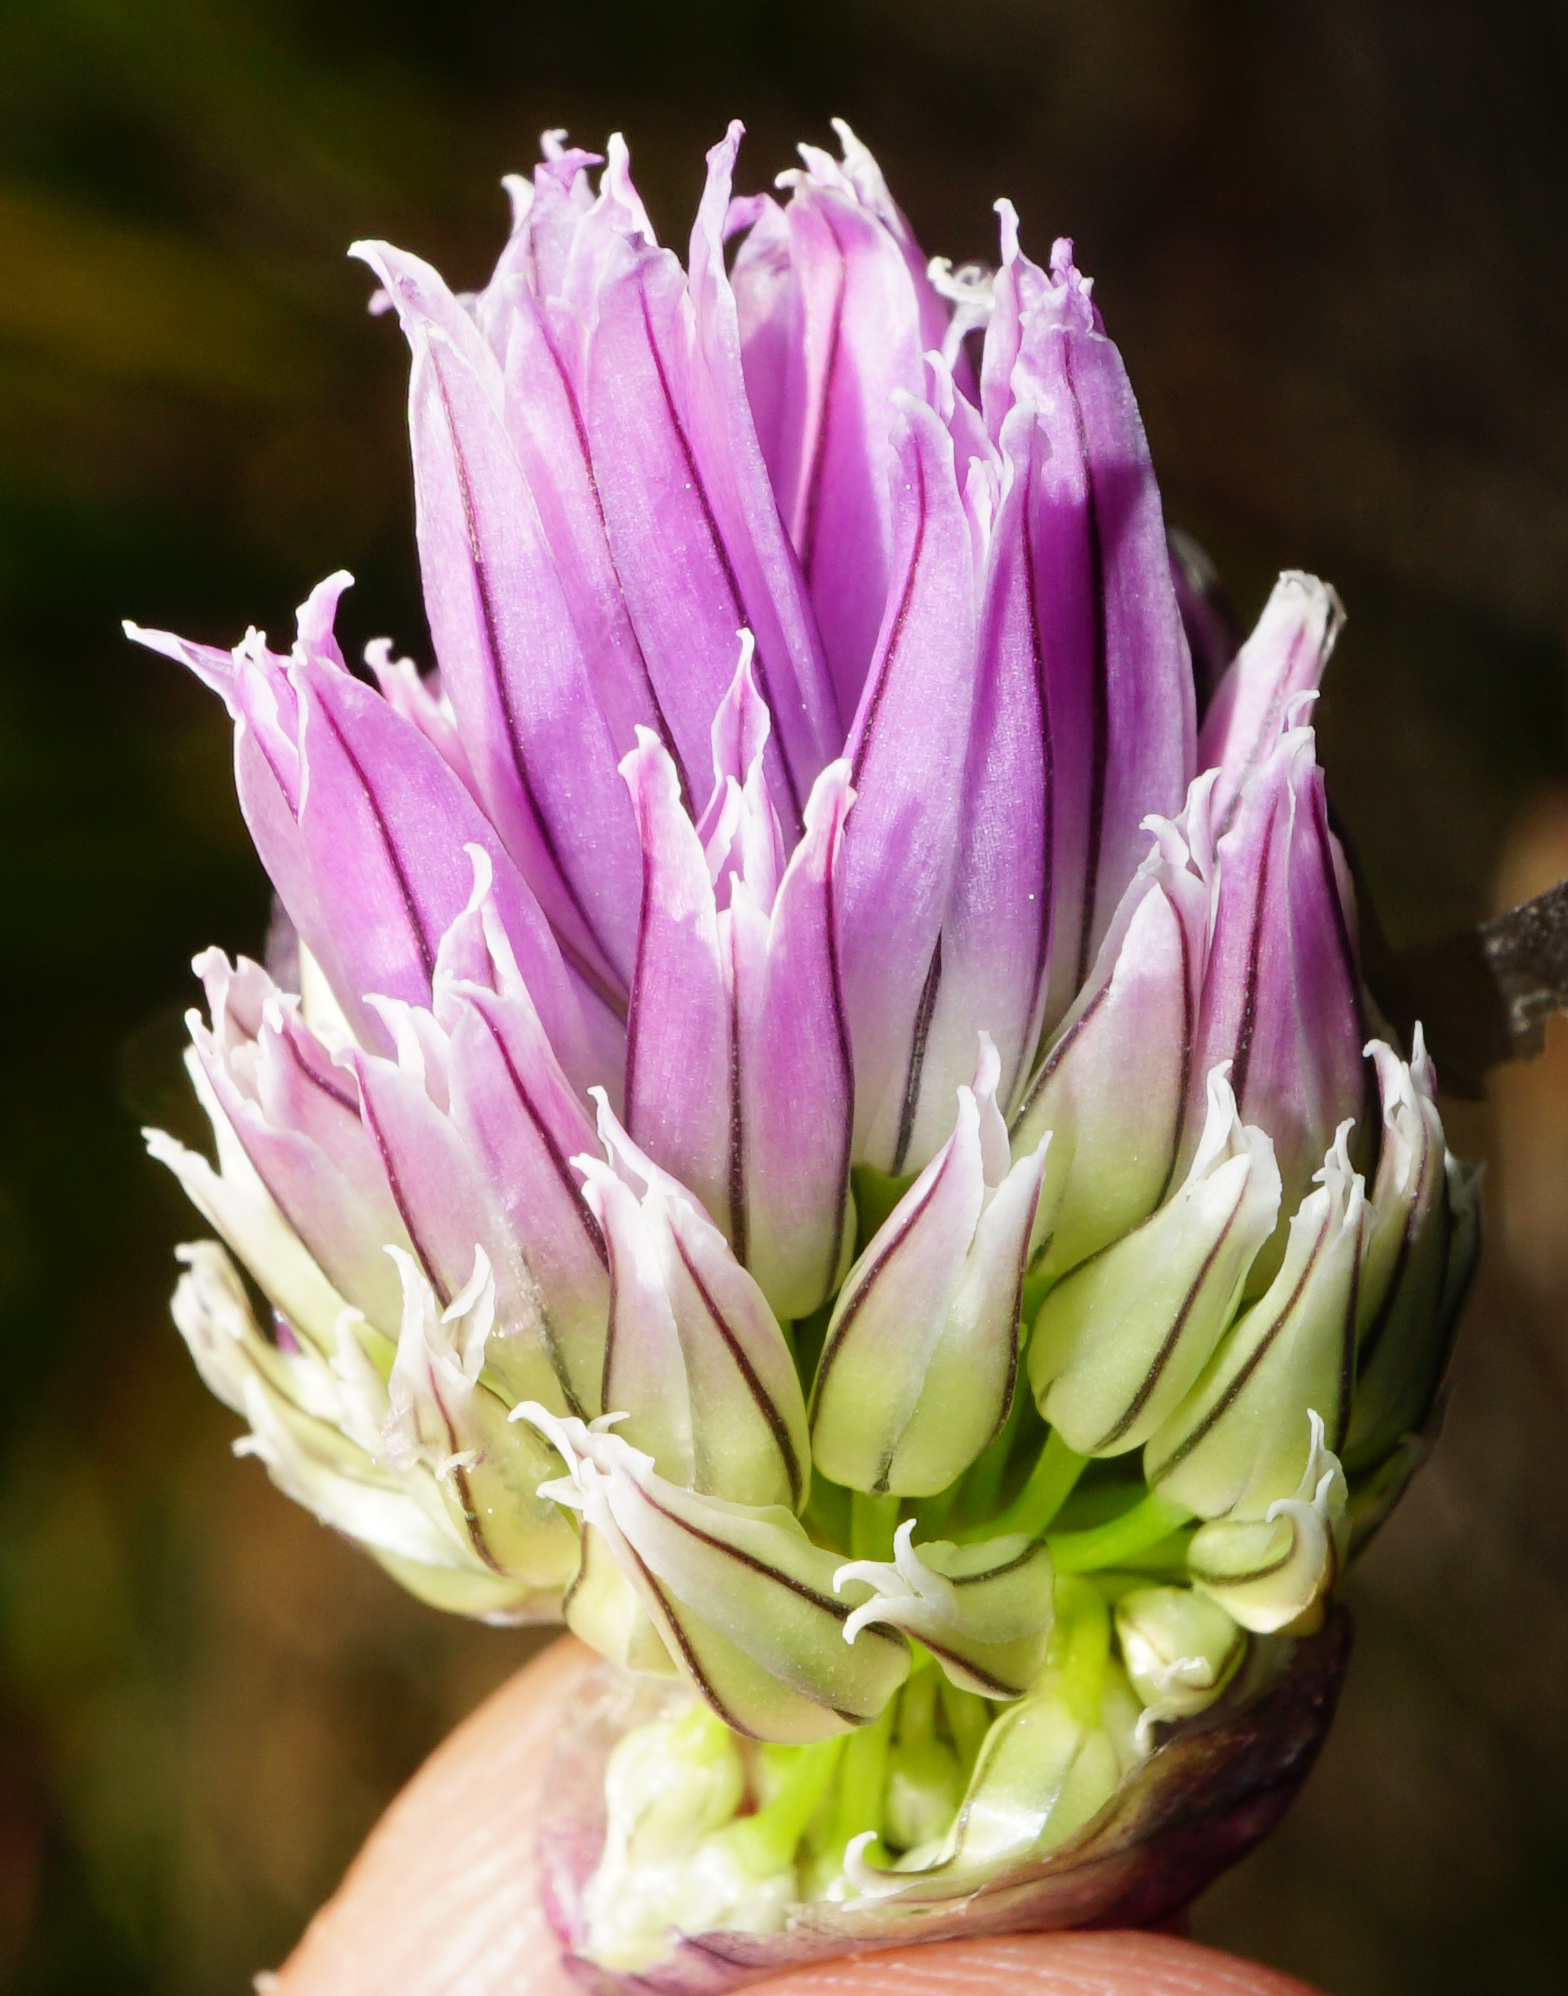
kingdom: Plantae
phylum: Tracheophyta
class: Liliopsida
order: Asparagales
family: Amaryllidaceae
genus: Allium
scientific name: Allium schoenoprasum
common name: Chives
